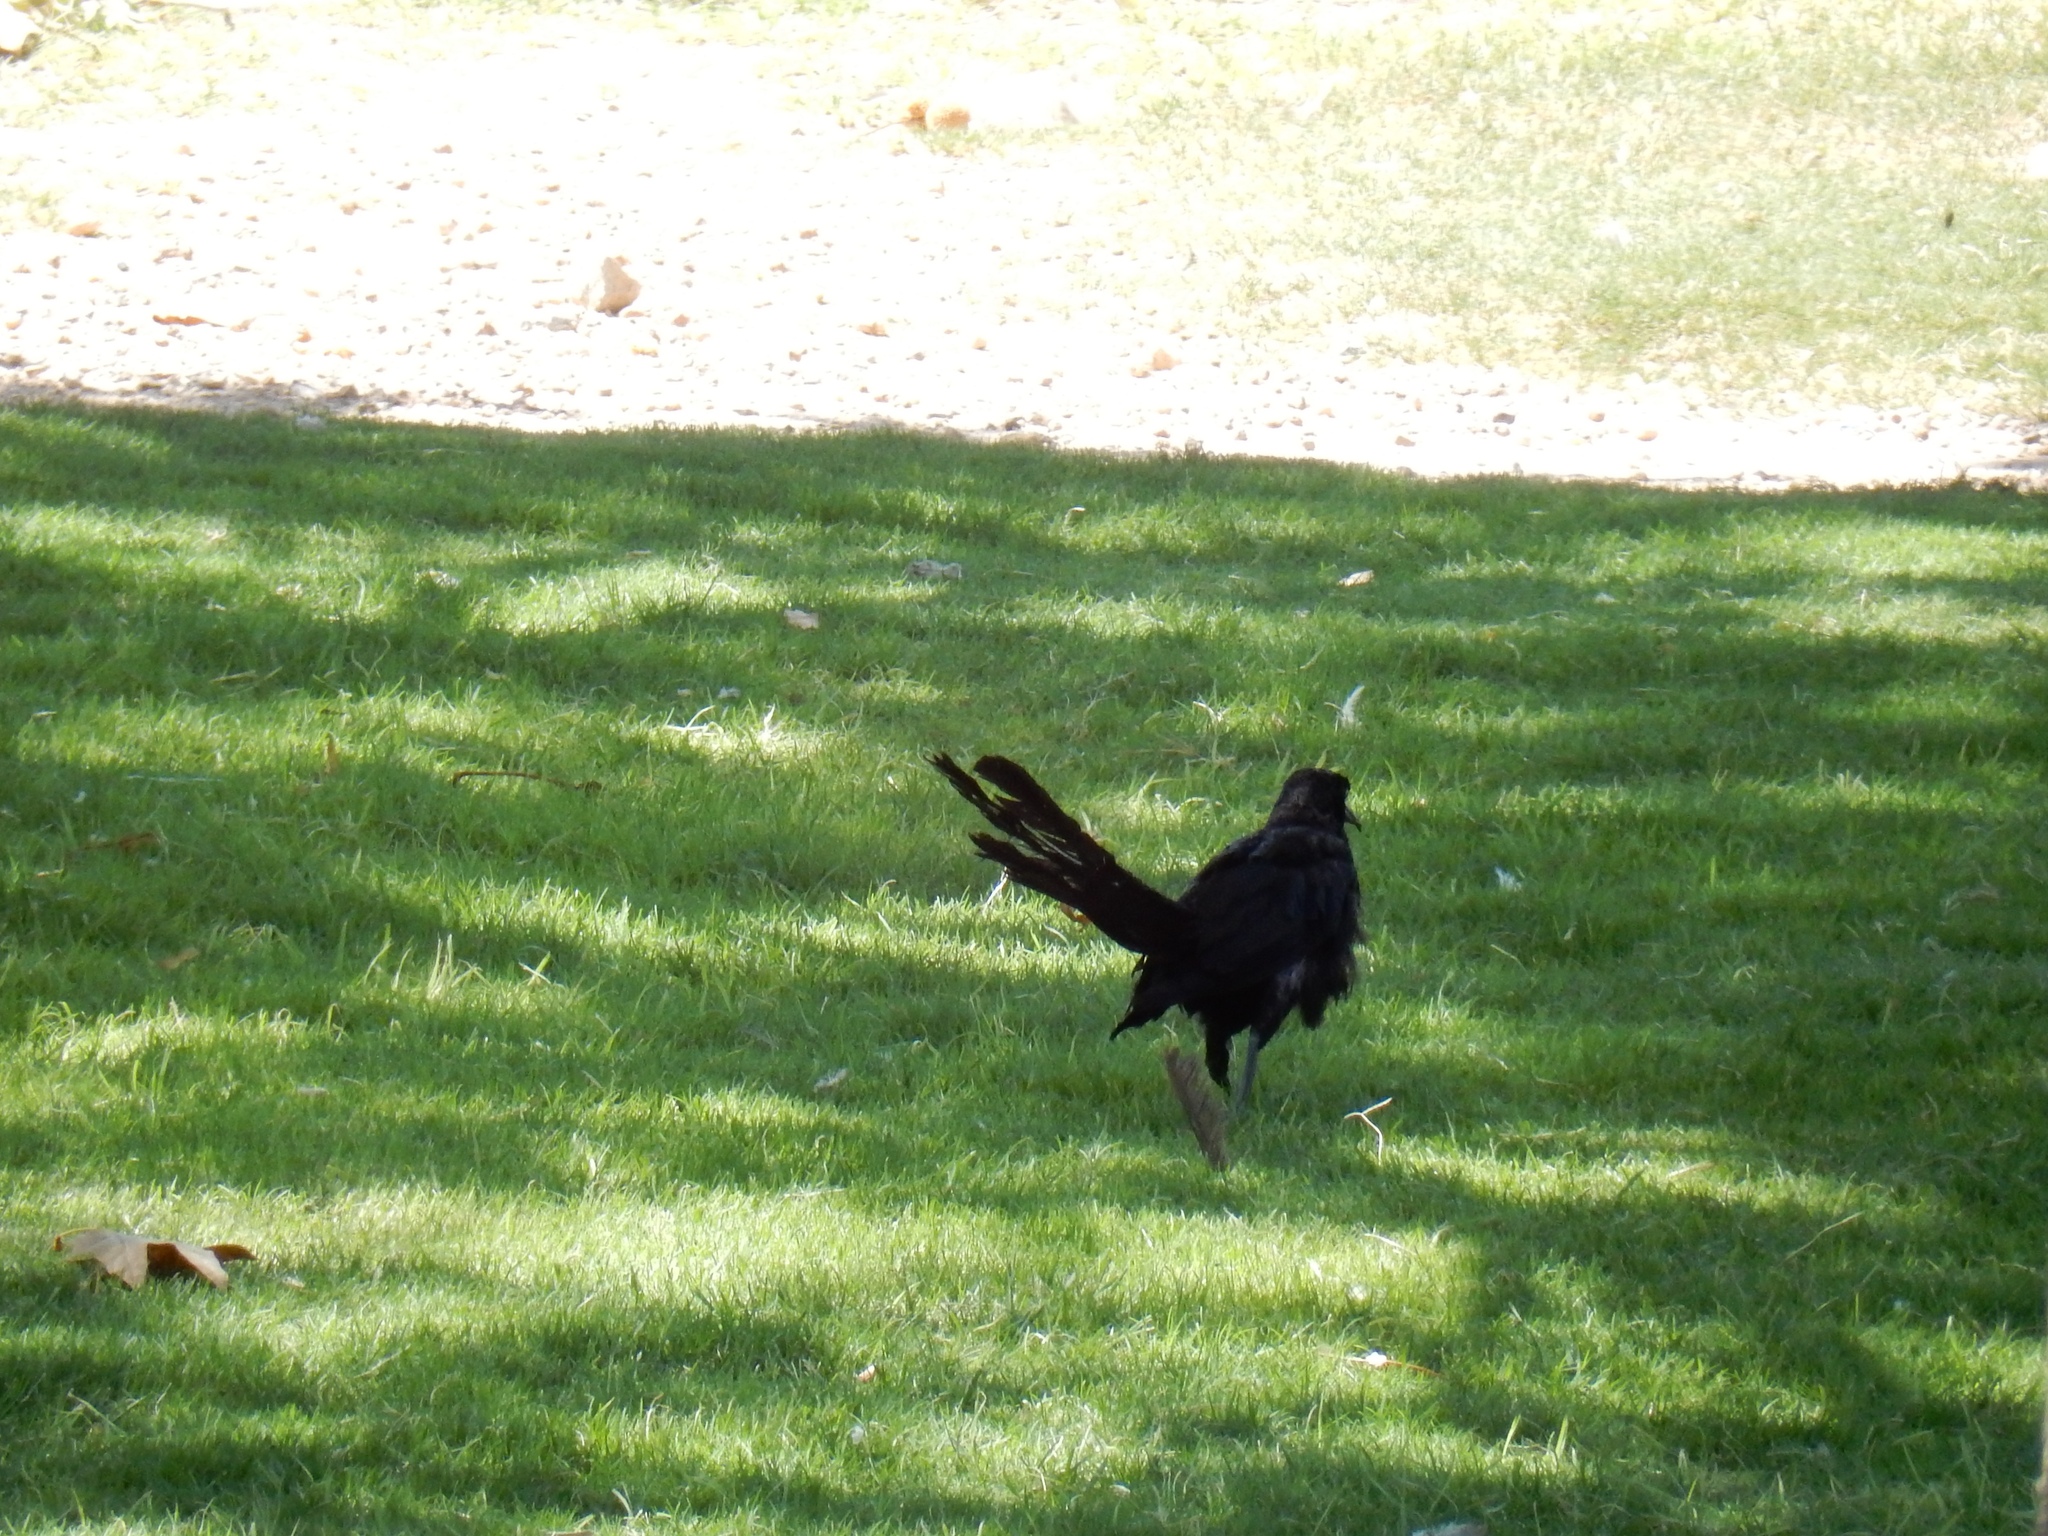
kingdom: Animalia
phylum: Chordata
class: Aves
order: Passeriformes
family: Icteridae
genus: Quiscalus
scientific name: Quiscalus mexicanus
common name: Great-tailed grackle
